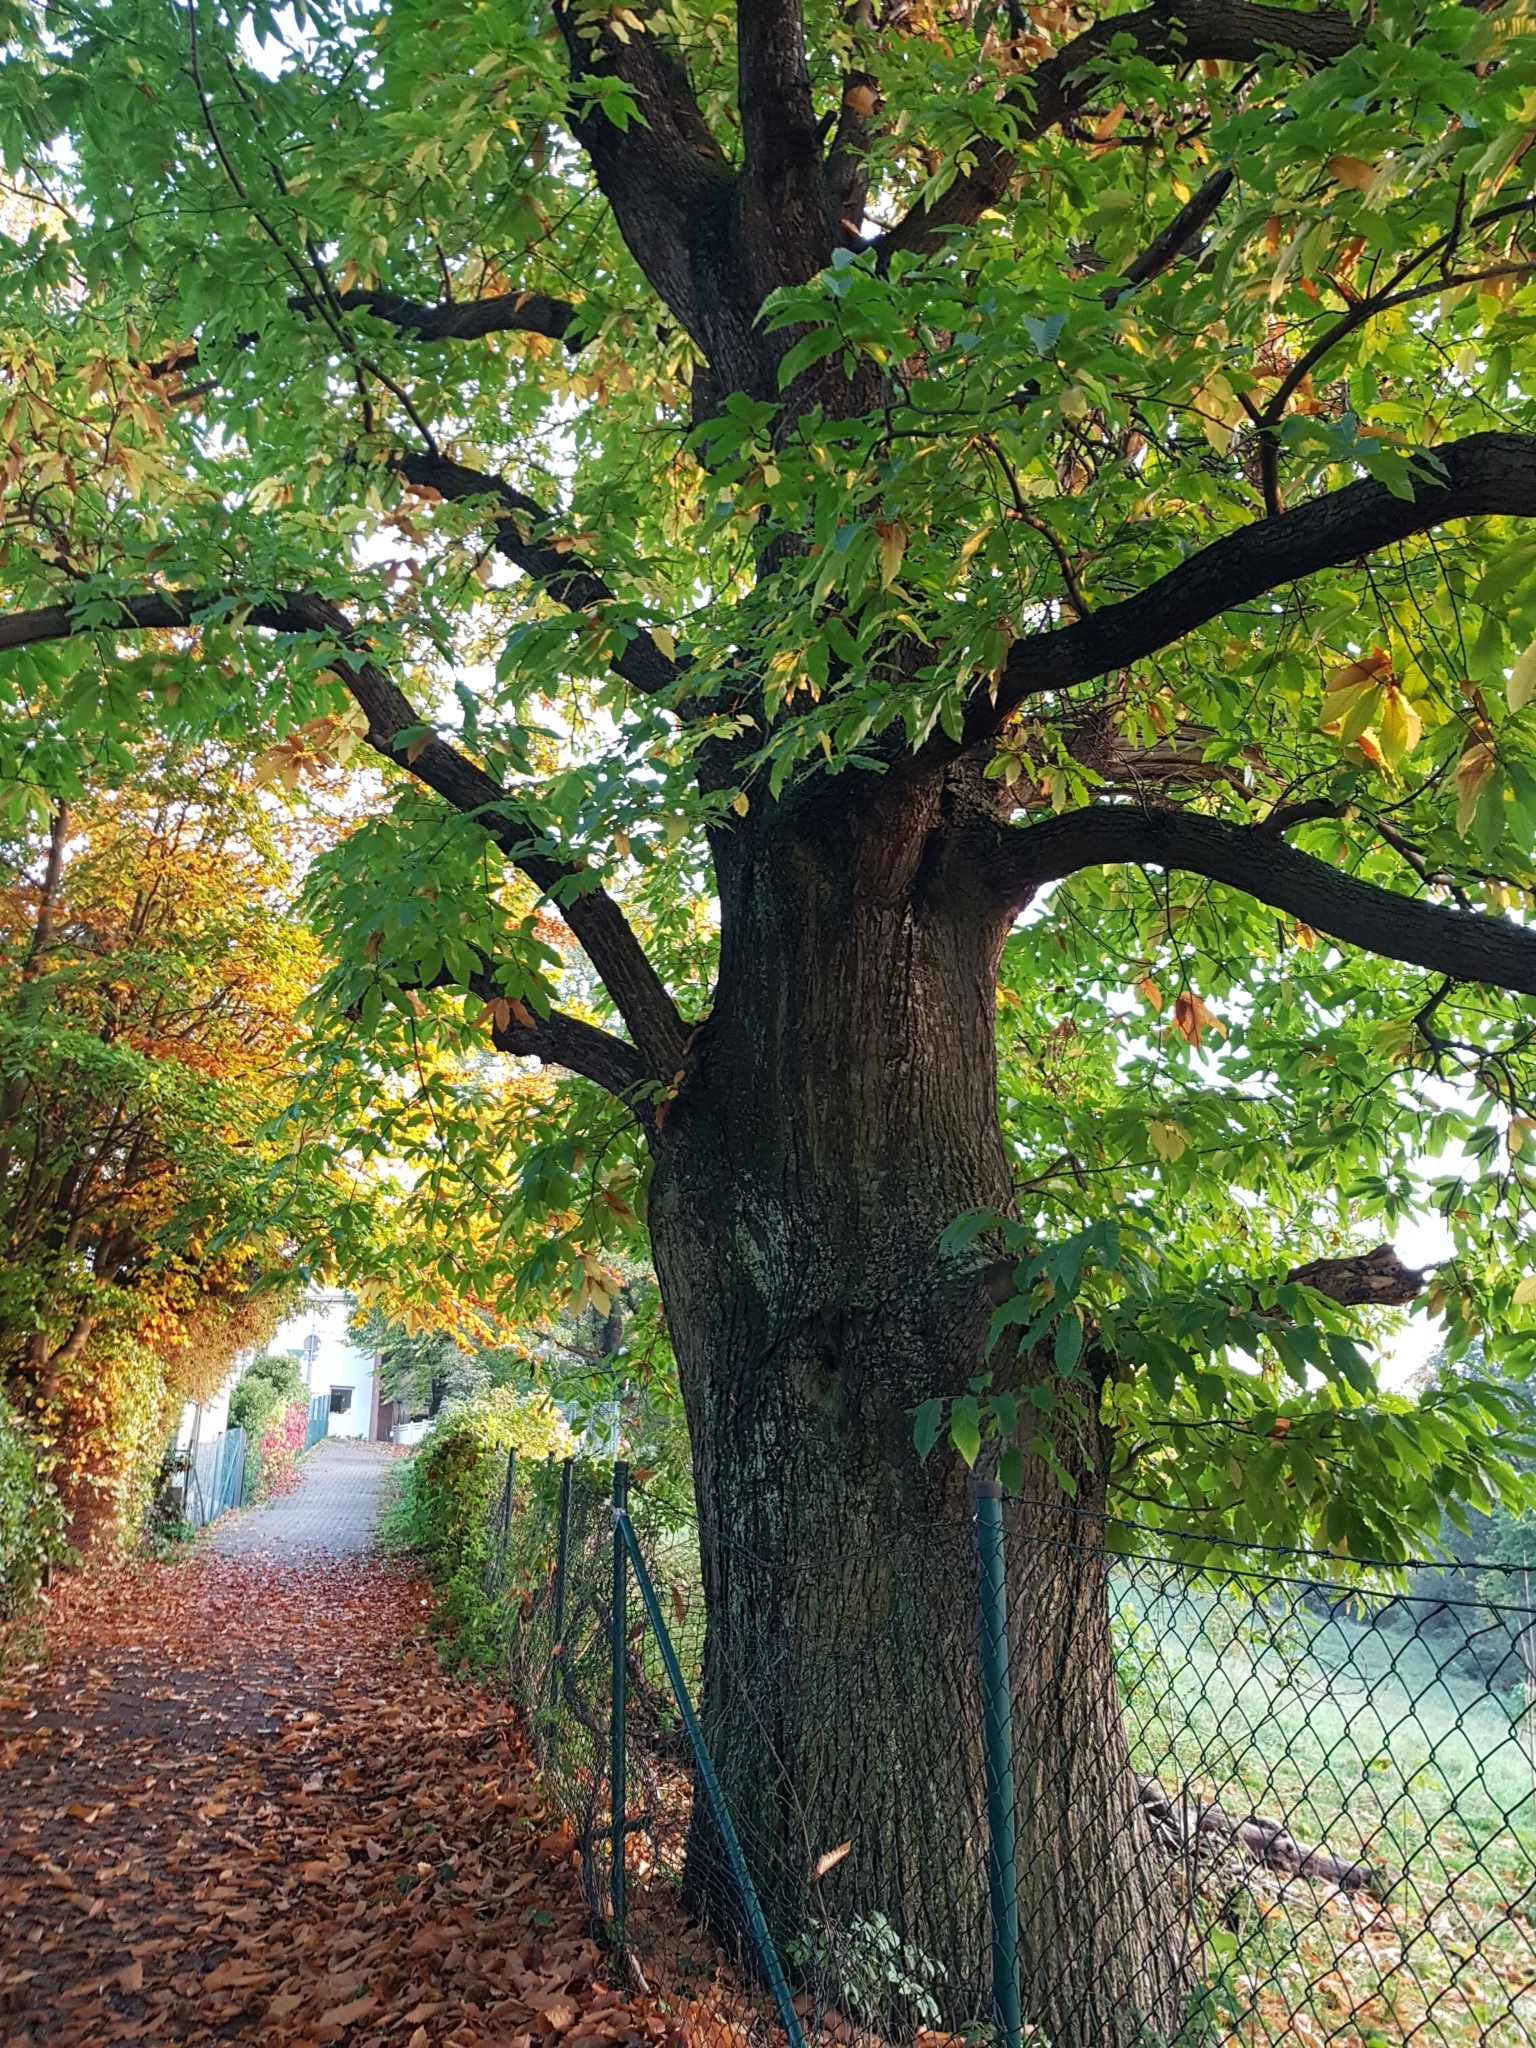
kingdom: Plantae
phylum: Tracheophyta
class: Magnoliopsida
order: Fagales
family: Fagaceae
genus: Castanea
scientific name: Castanea sativa
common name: Sweet chestnut
